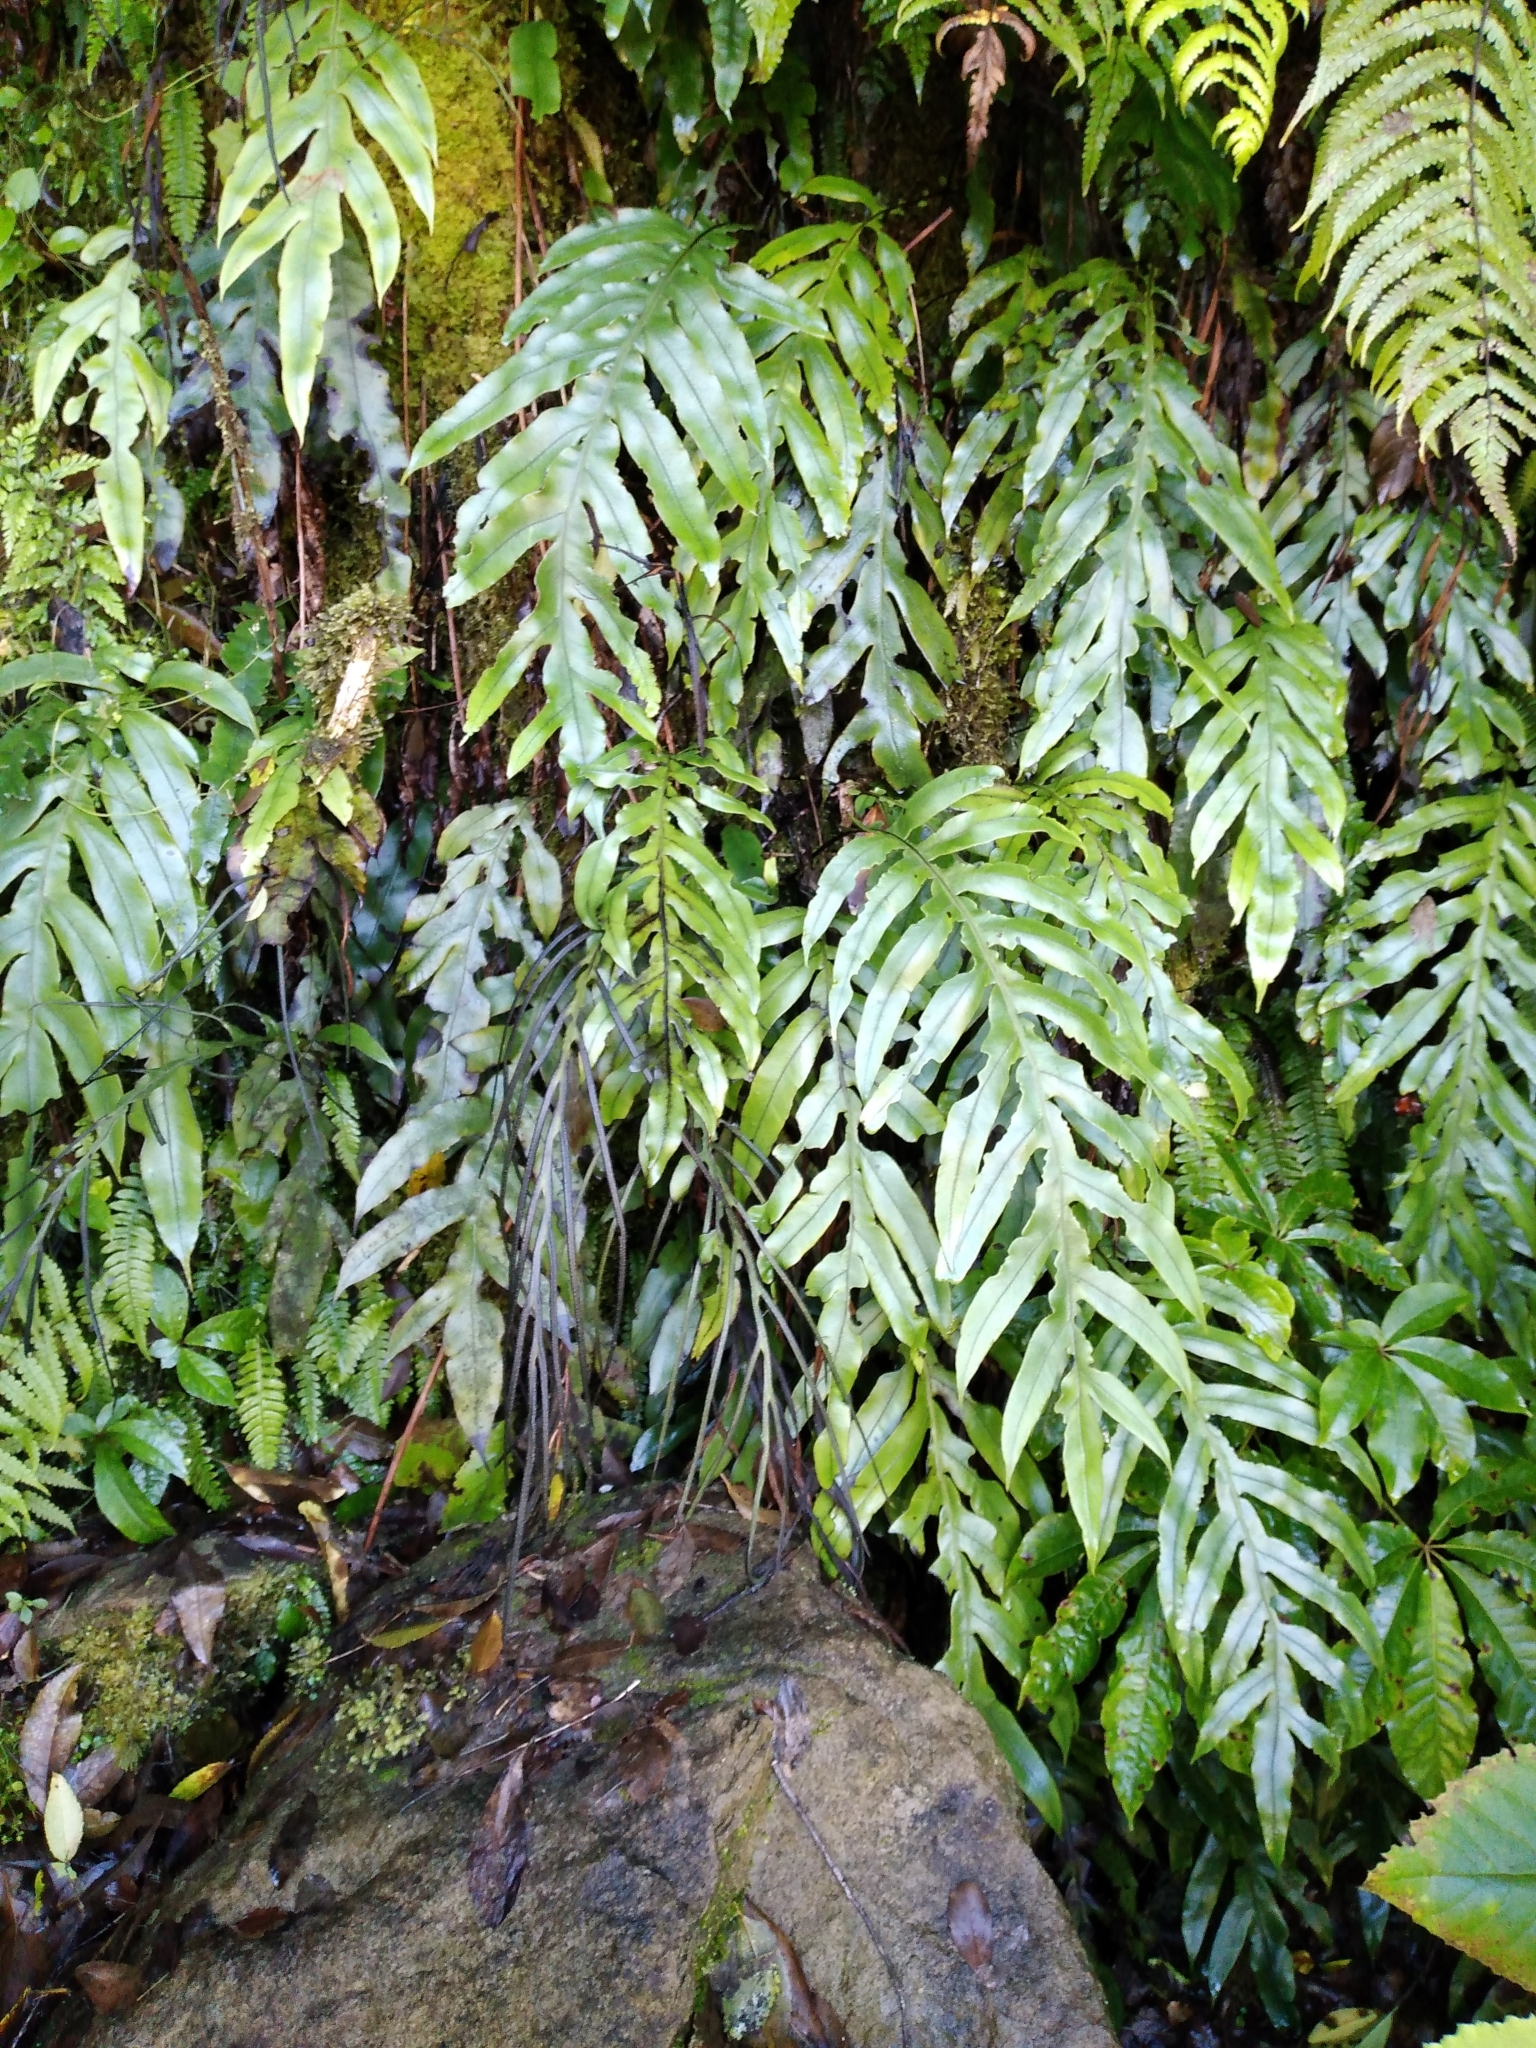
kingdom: Plantae
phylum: Tracheophyta
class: Polypodiopsida
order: Polypodiales
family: Blechnaceae
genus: Austroblechnum
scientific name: Austroblechnum colensoi
